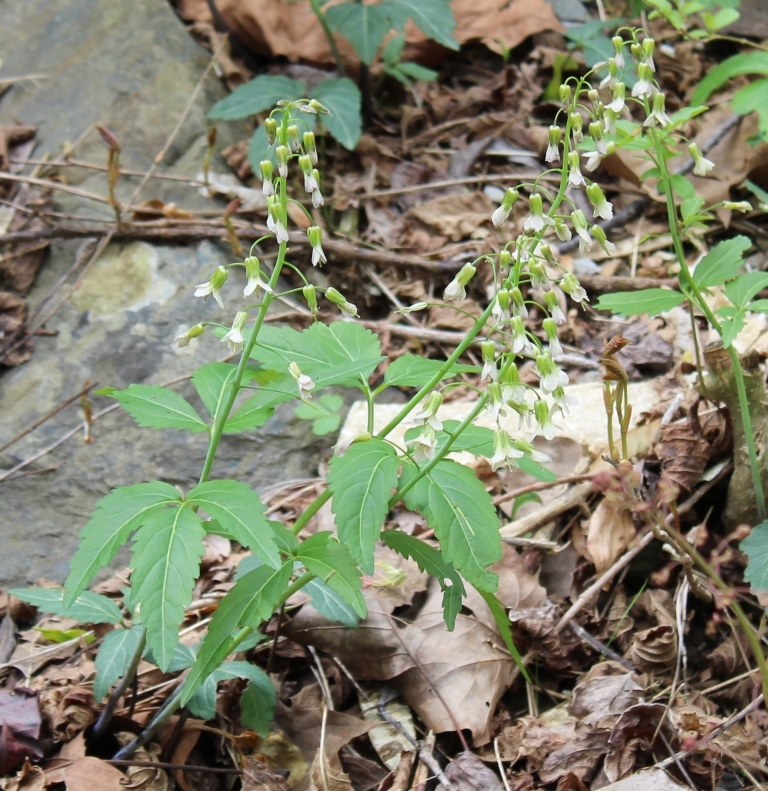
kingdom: Plantae
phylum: Tracheophyta
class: Magnoliopsida
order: Brassicales
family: Brassicaceae
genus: Cardamine
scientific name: Cardamine diphylla
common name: Broad-leaved toothwort
